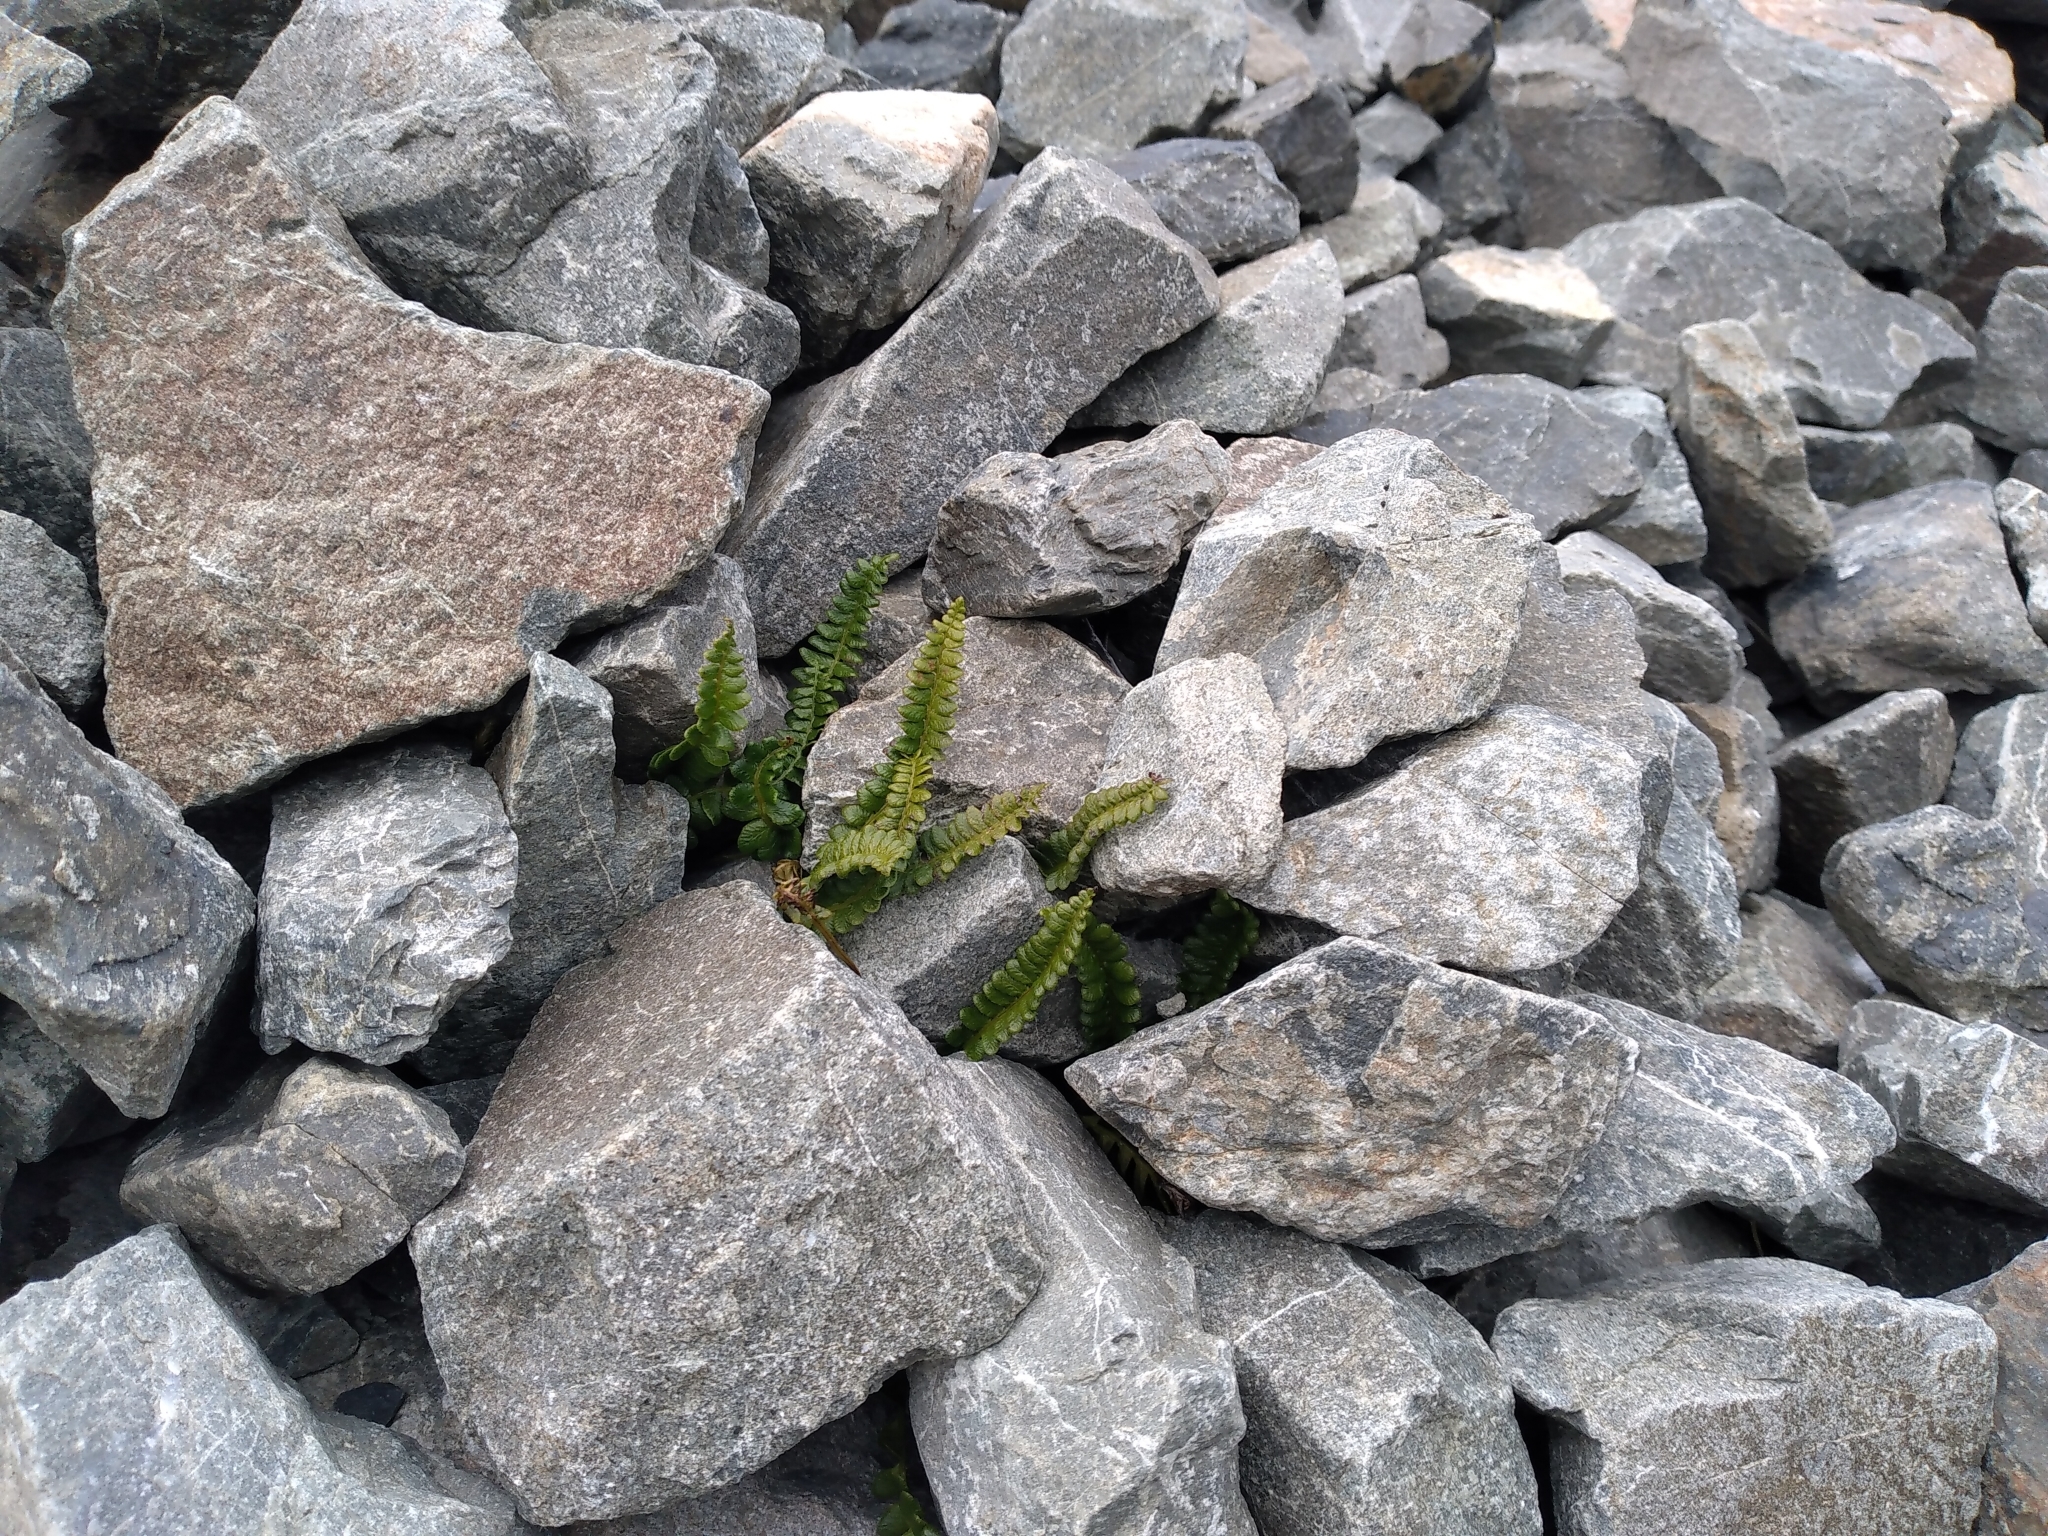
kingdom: Plantae
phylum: Tracheophyta
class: Polypodiopsida
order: Polypodiales
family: Blechnaceae
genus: Austroblechnum
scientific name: Austroblechnum penna-marina
